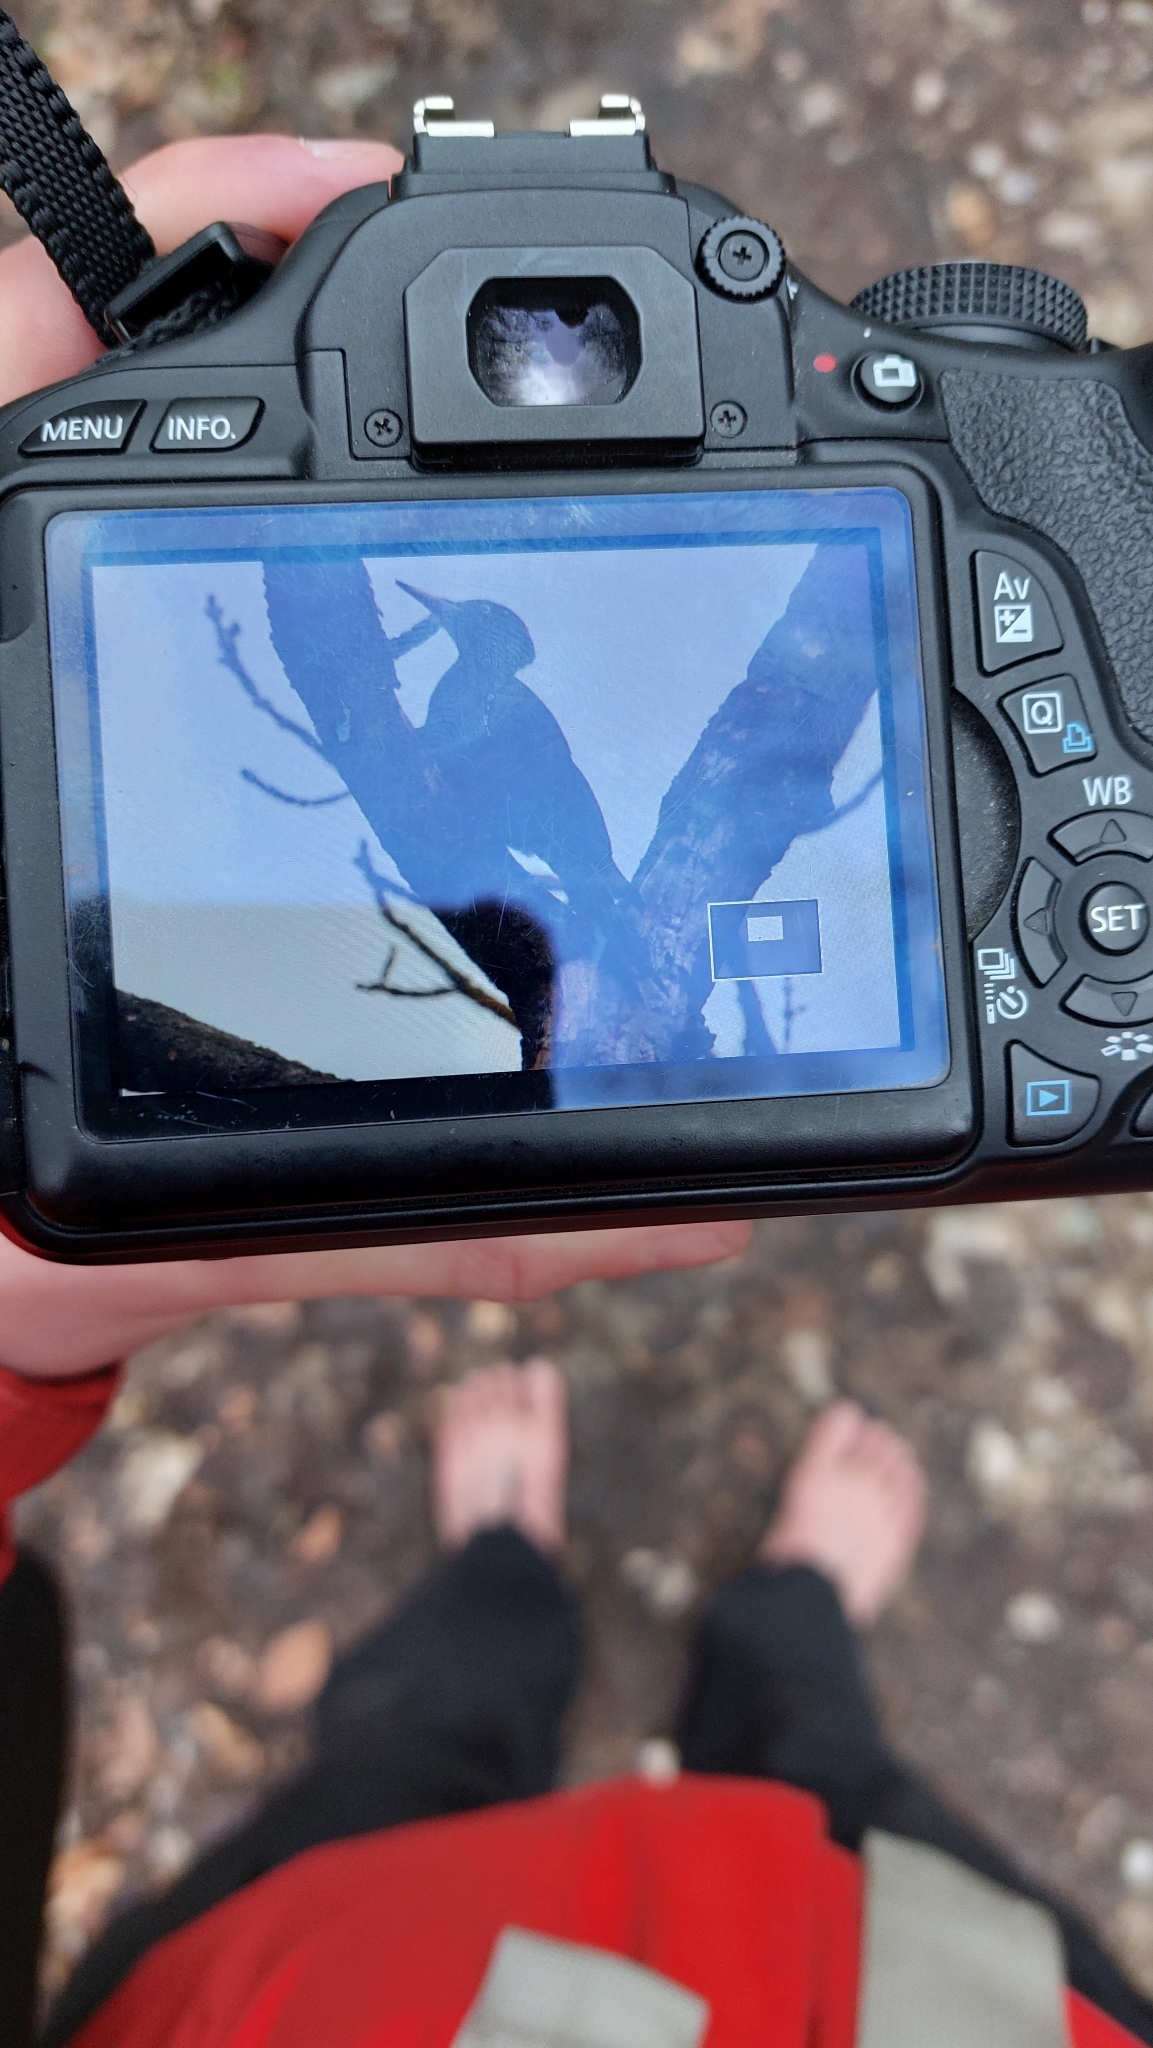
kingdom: Animalia
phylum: Chordata
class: Aves
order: Piciformes
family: Picidae
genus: Dryocopus
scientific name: Dryocopus martius
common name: Black woodpecker
